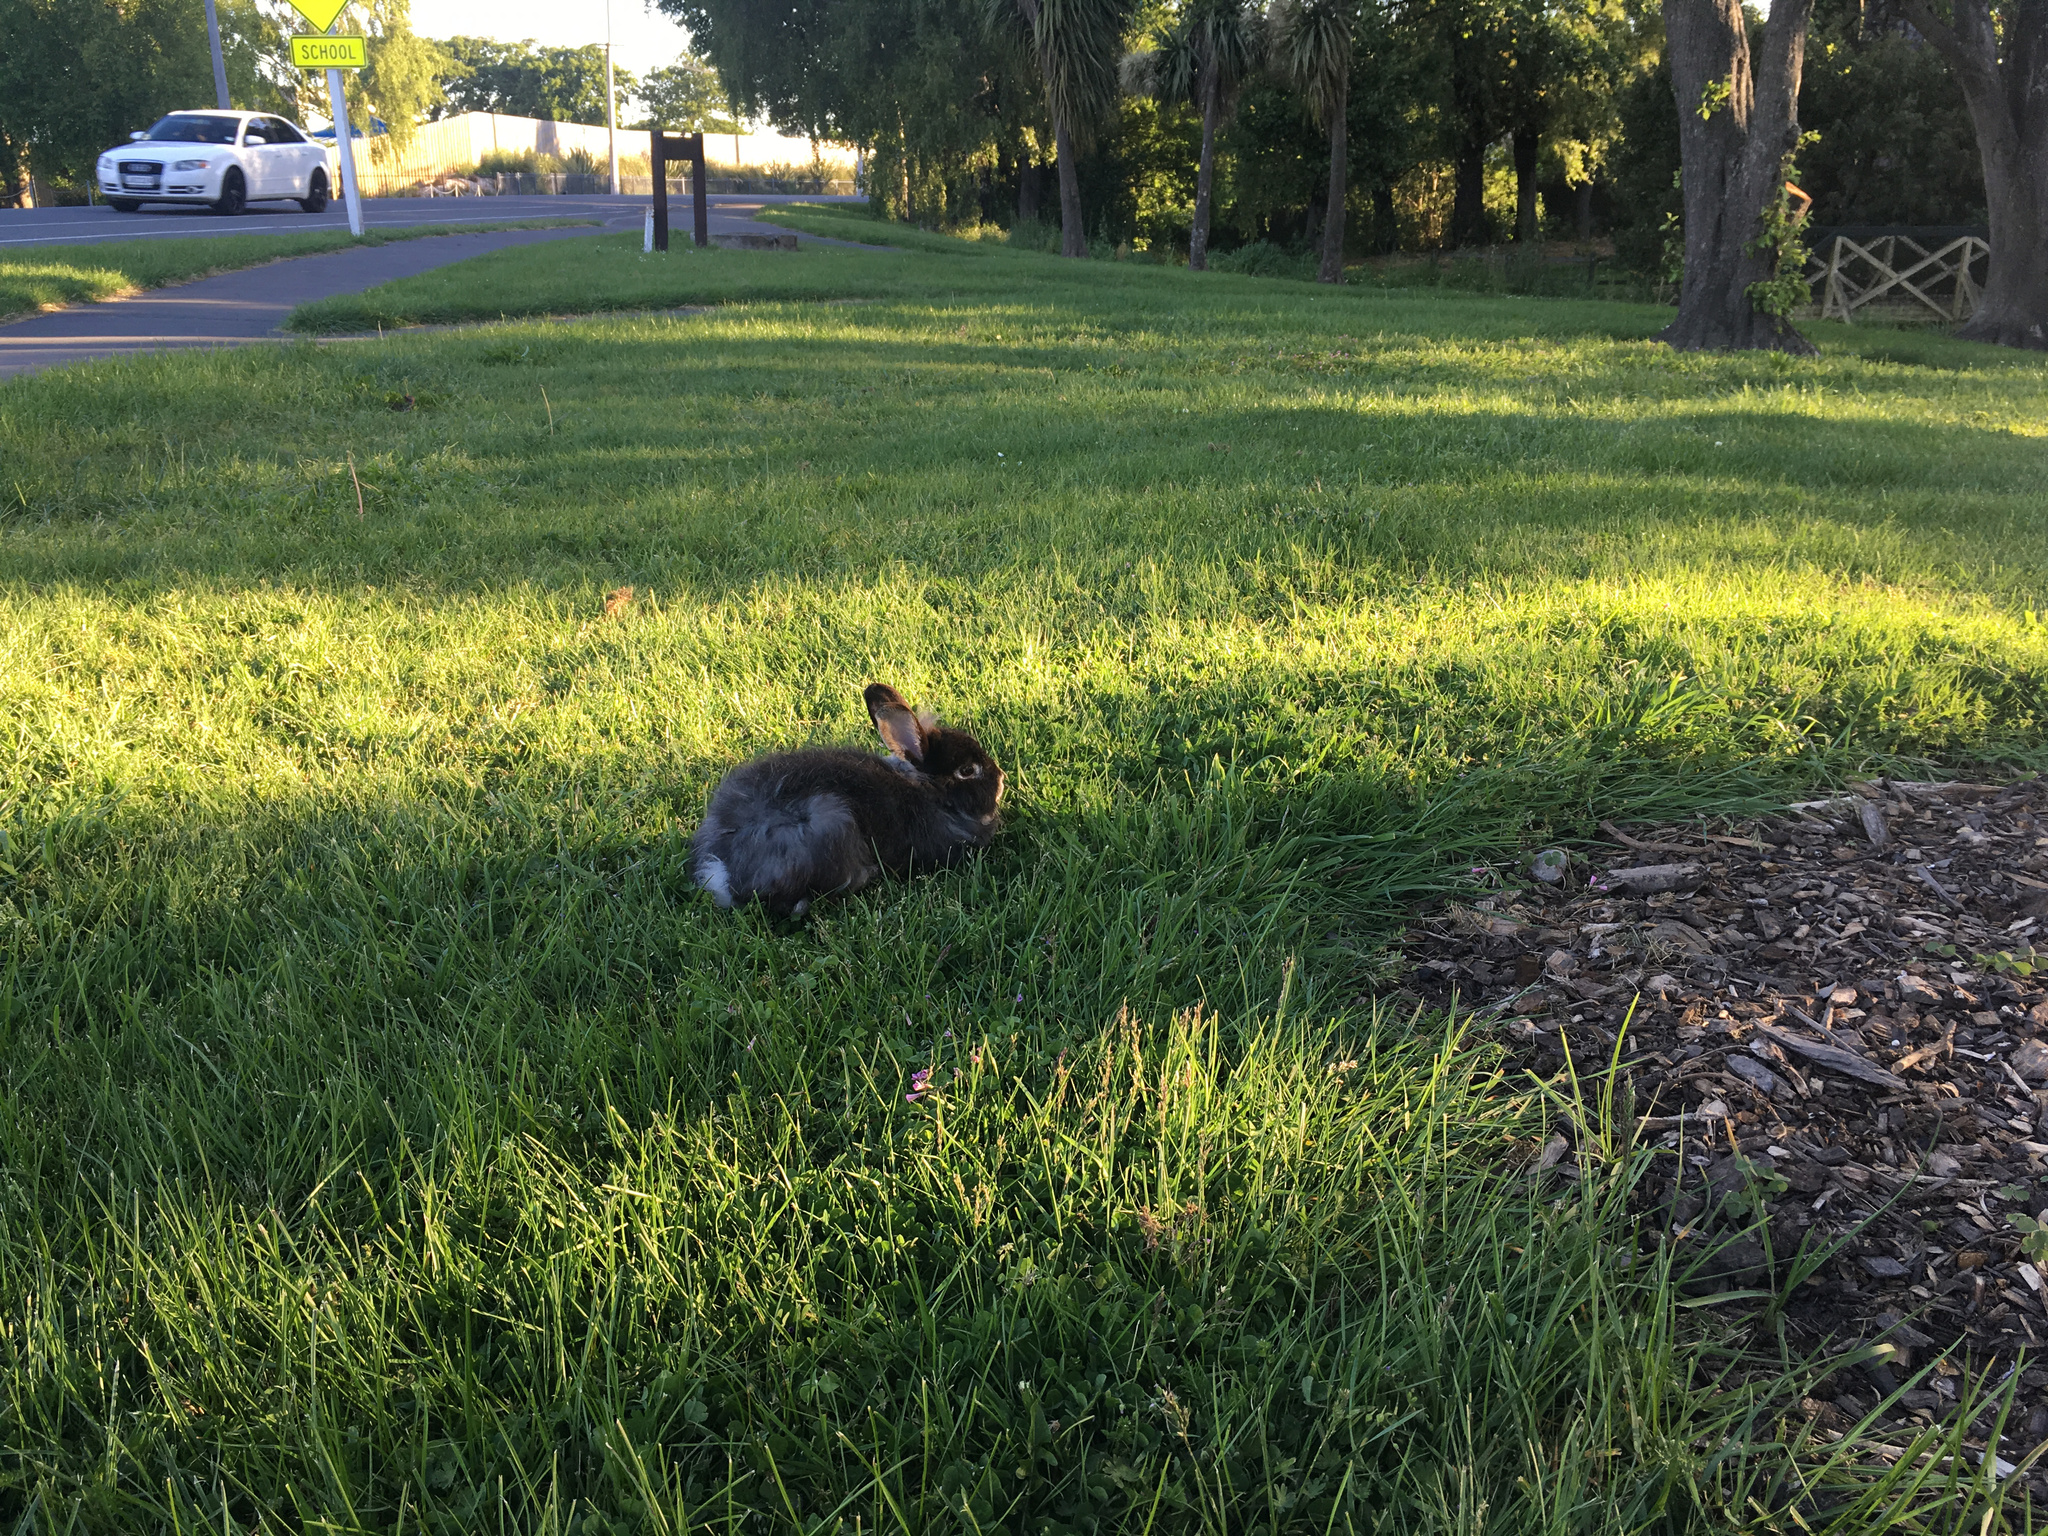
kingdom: Animalia
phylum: Chordata
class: Mammalia
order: Lagomorpha
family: Leporidae
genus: Oryctolagus
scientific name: Oryctolagus cuniculus
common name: European rabbit
